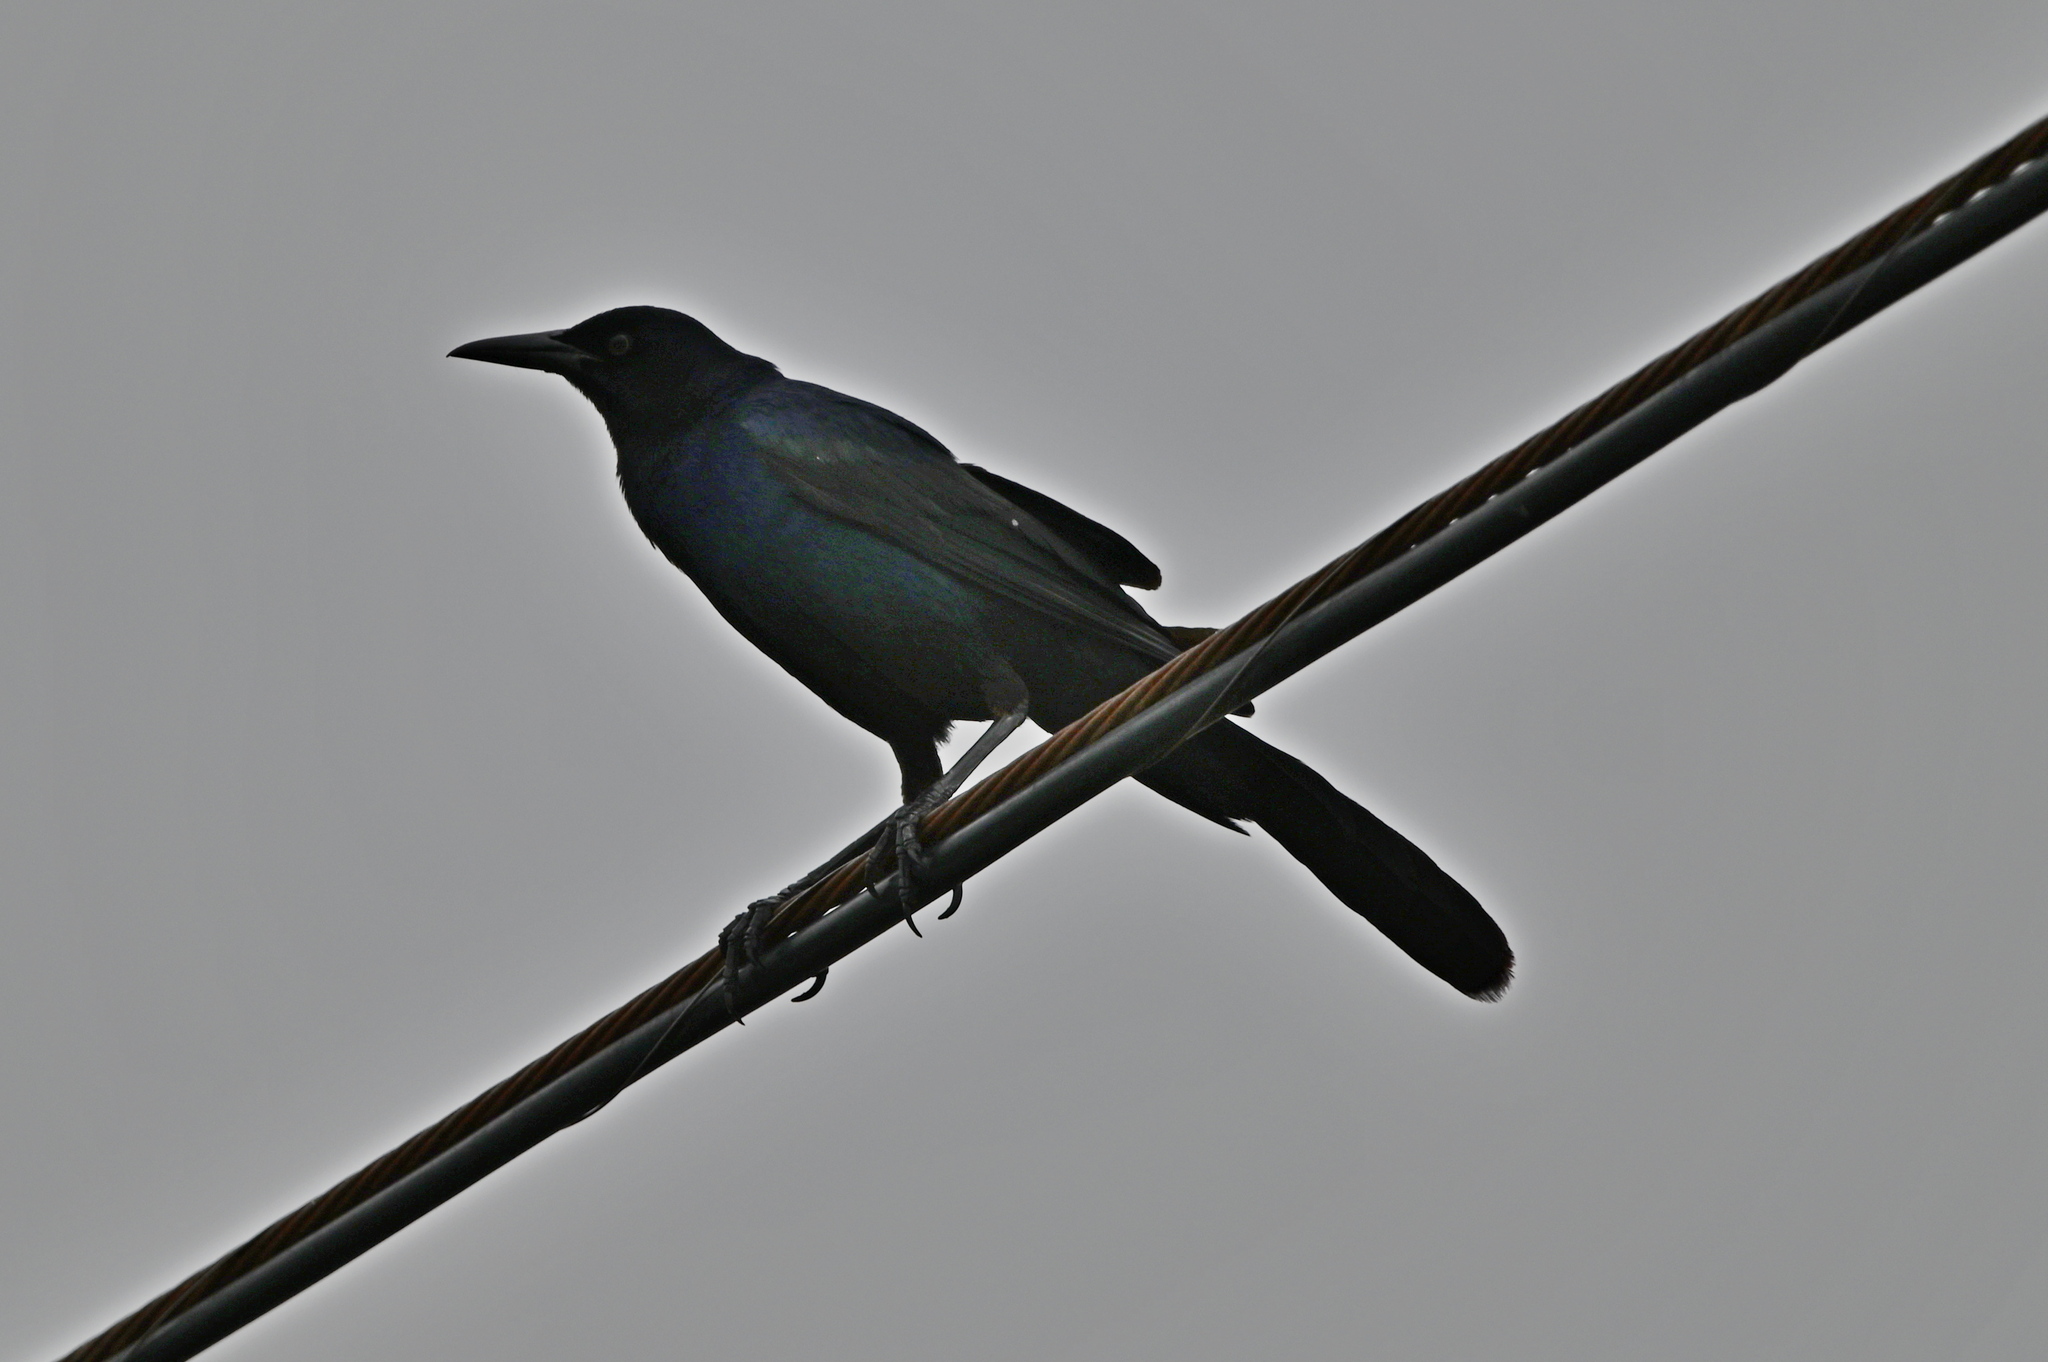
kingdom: Animalia
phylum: Chordata
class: Aves
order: Passeriformes
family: Icteridae
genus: Quiscalus
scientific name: Quiscalus major
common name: Boat-tailed grackle
